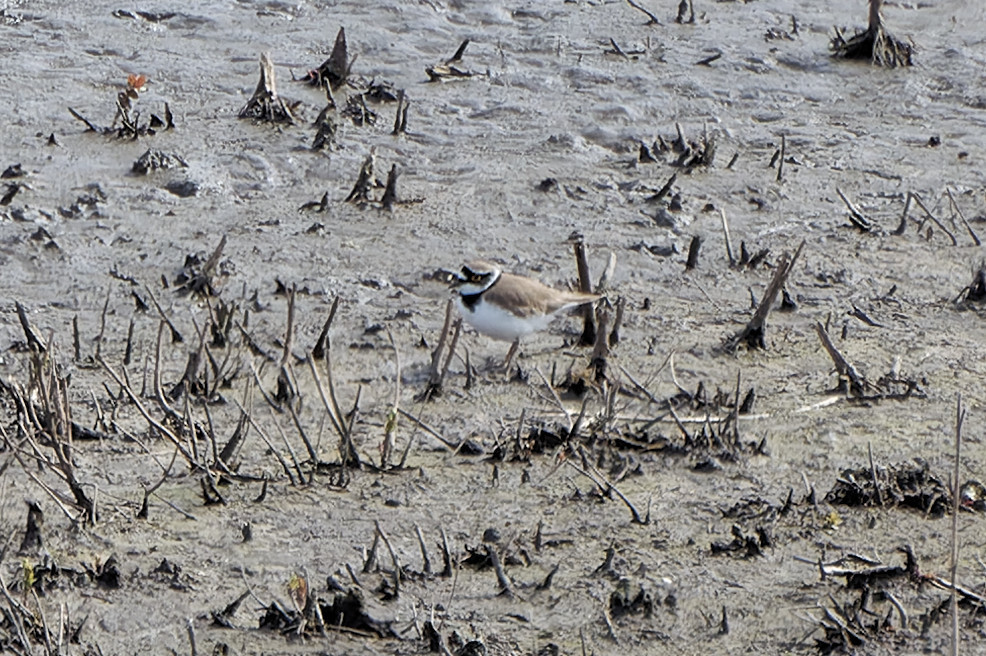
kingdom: Animalia
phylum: Chordata
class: Aves
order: Charadriiformes
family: Charadriidae
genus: Charadrius
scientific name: Charadrius dubius
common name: Little ringed plover
